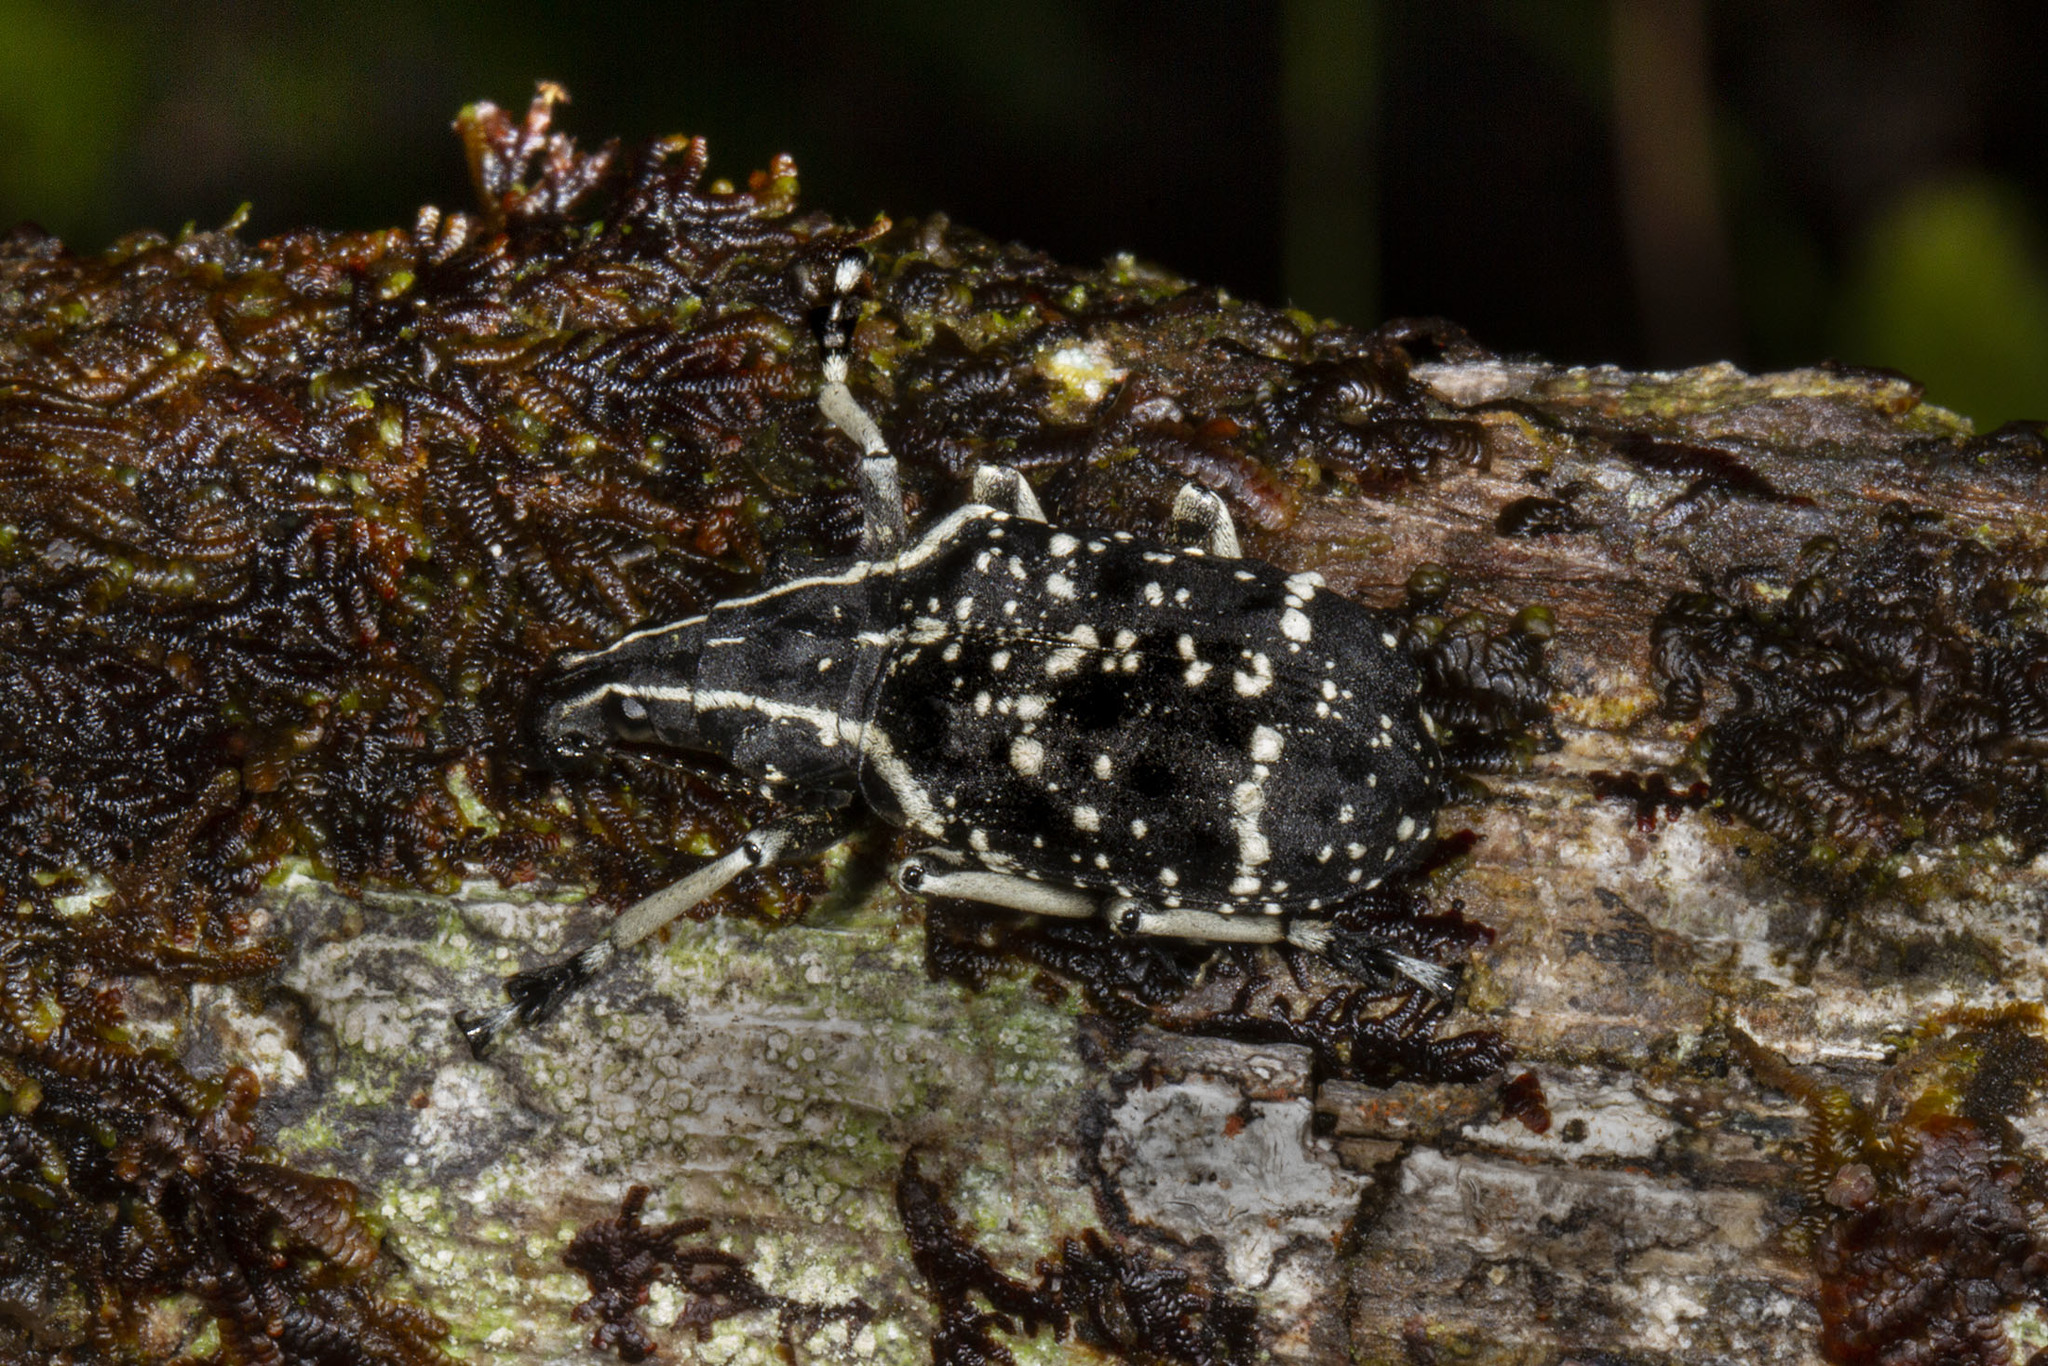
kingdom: Animalia
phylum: Arthropoda
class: Insecta
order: Coleoptera
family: Anthribidae
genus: Tophoderes
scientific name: Tophoderes frenatus
